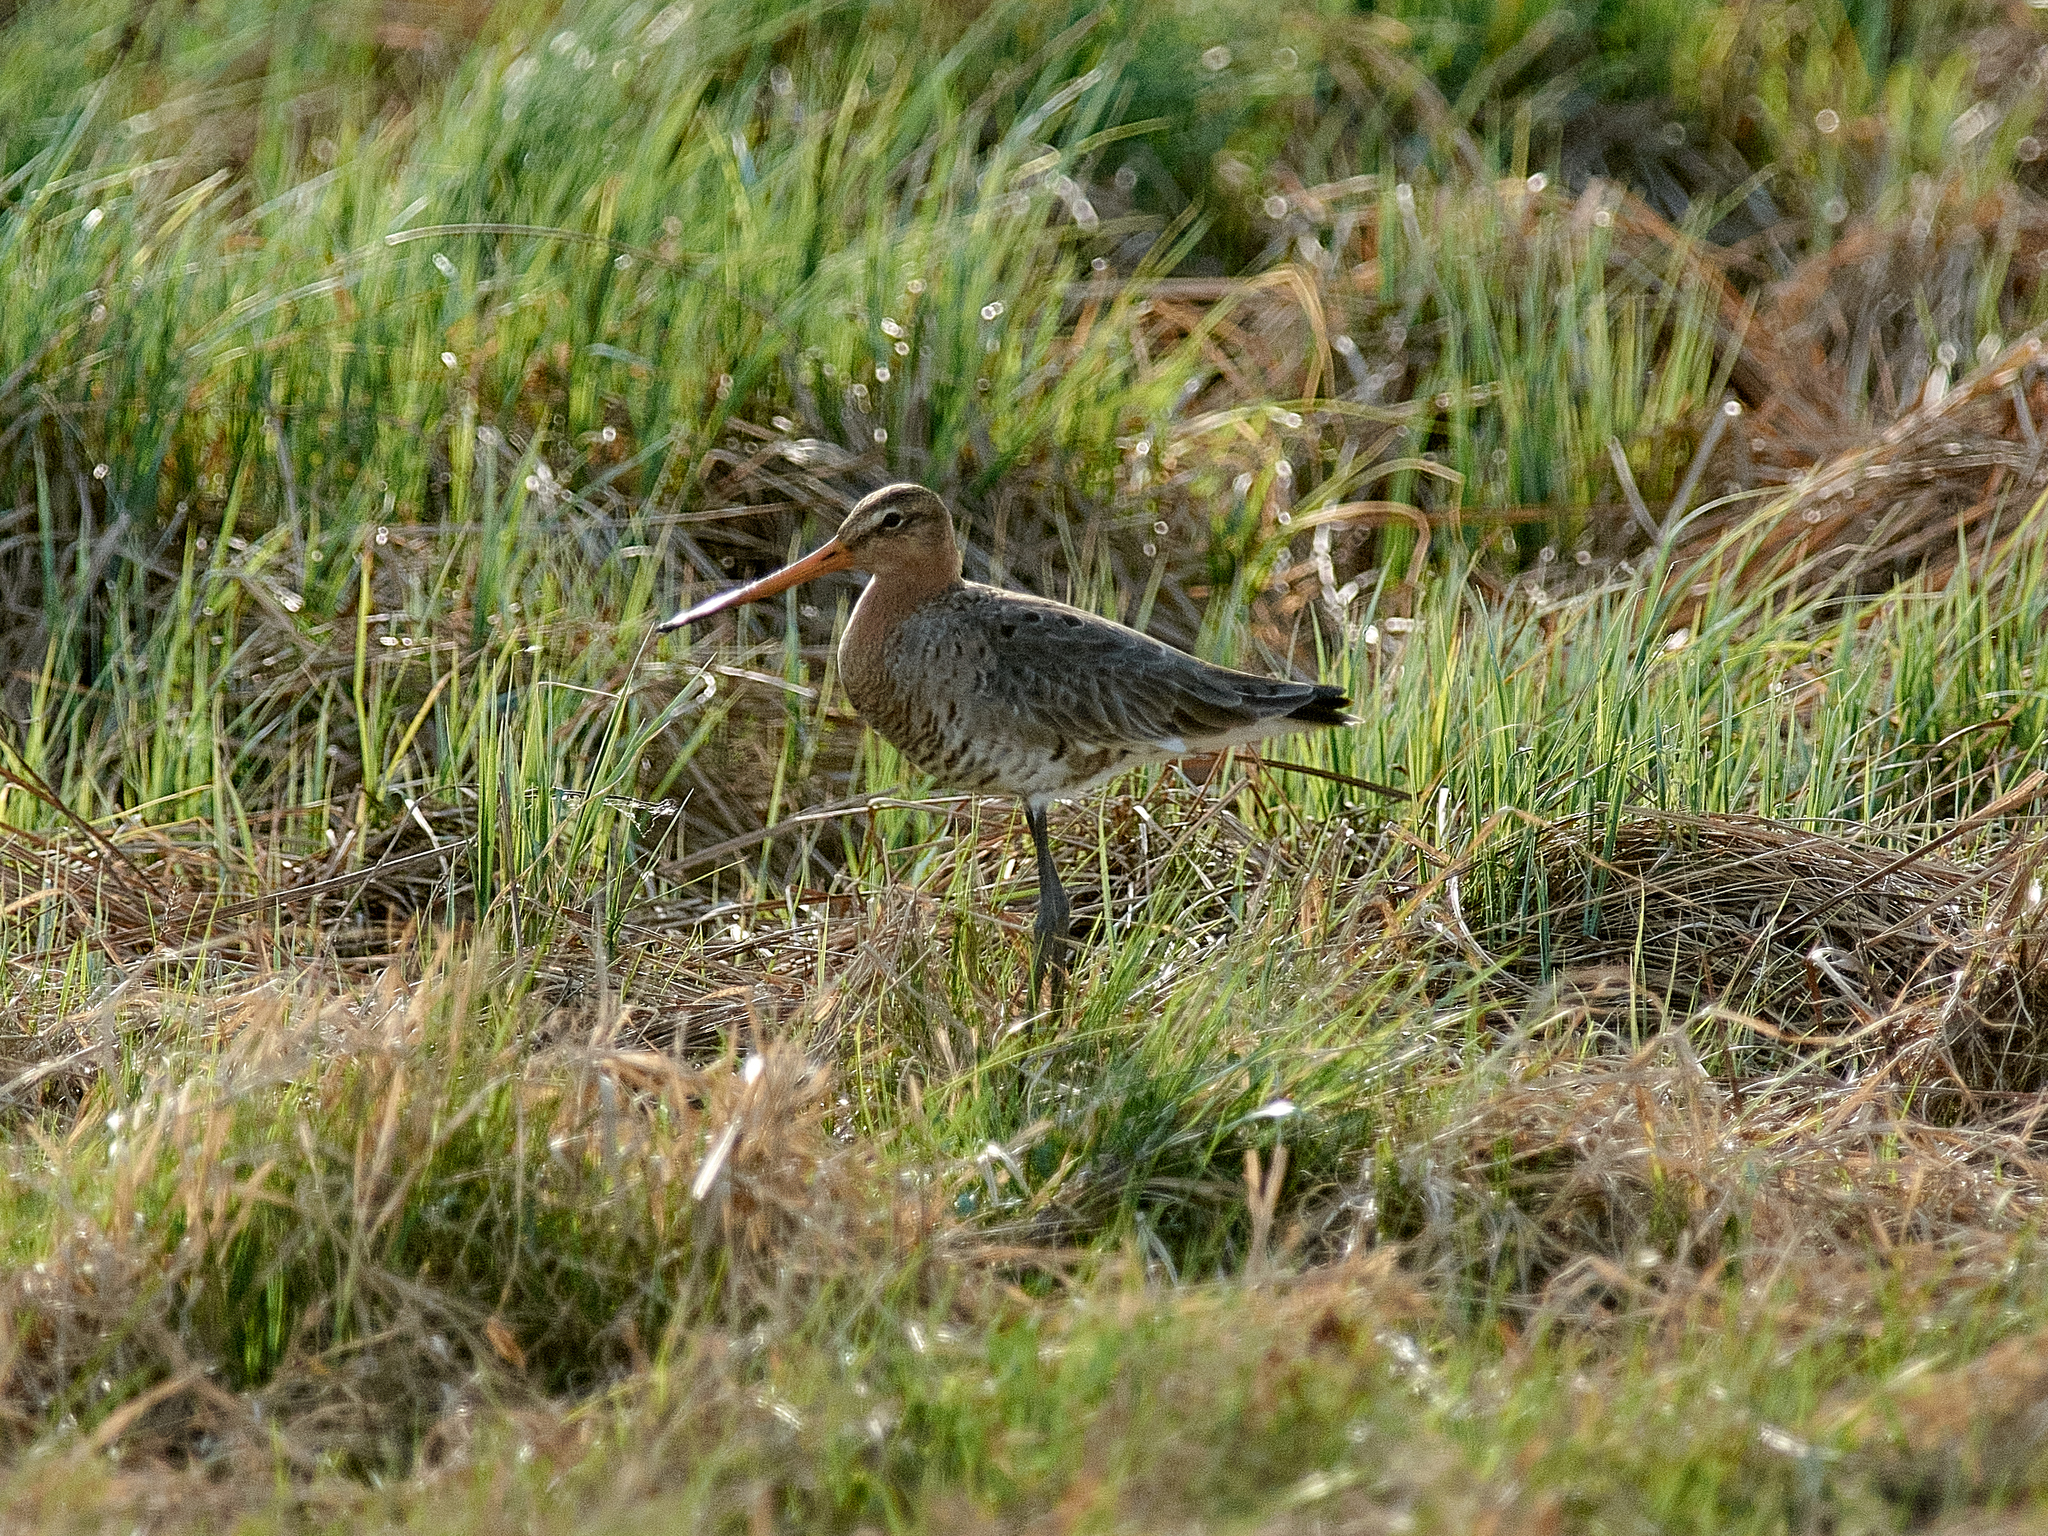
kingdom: Animalia
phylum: Chordata
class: Aves
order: Charadriiformes
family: Scolopacidae
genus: Limosa
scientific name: Limosa limosa
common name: Black-tailed godwit
